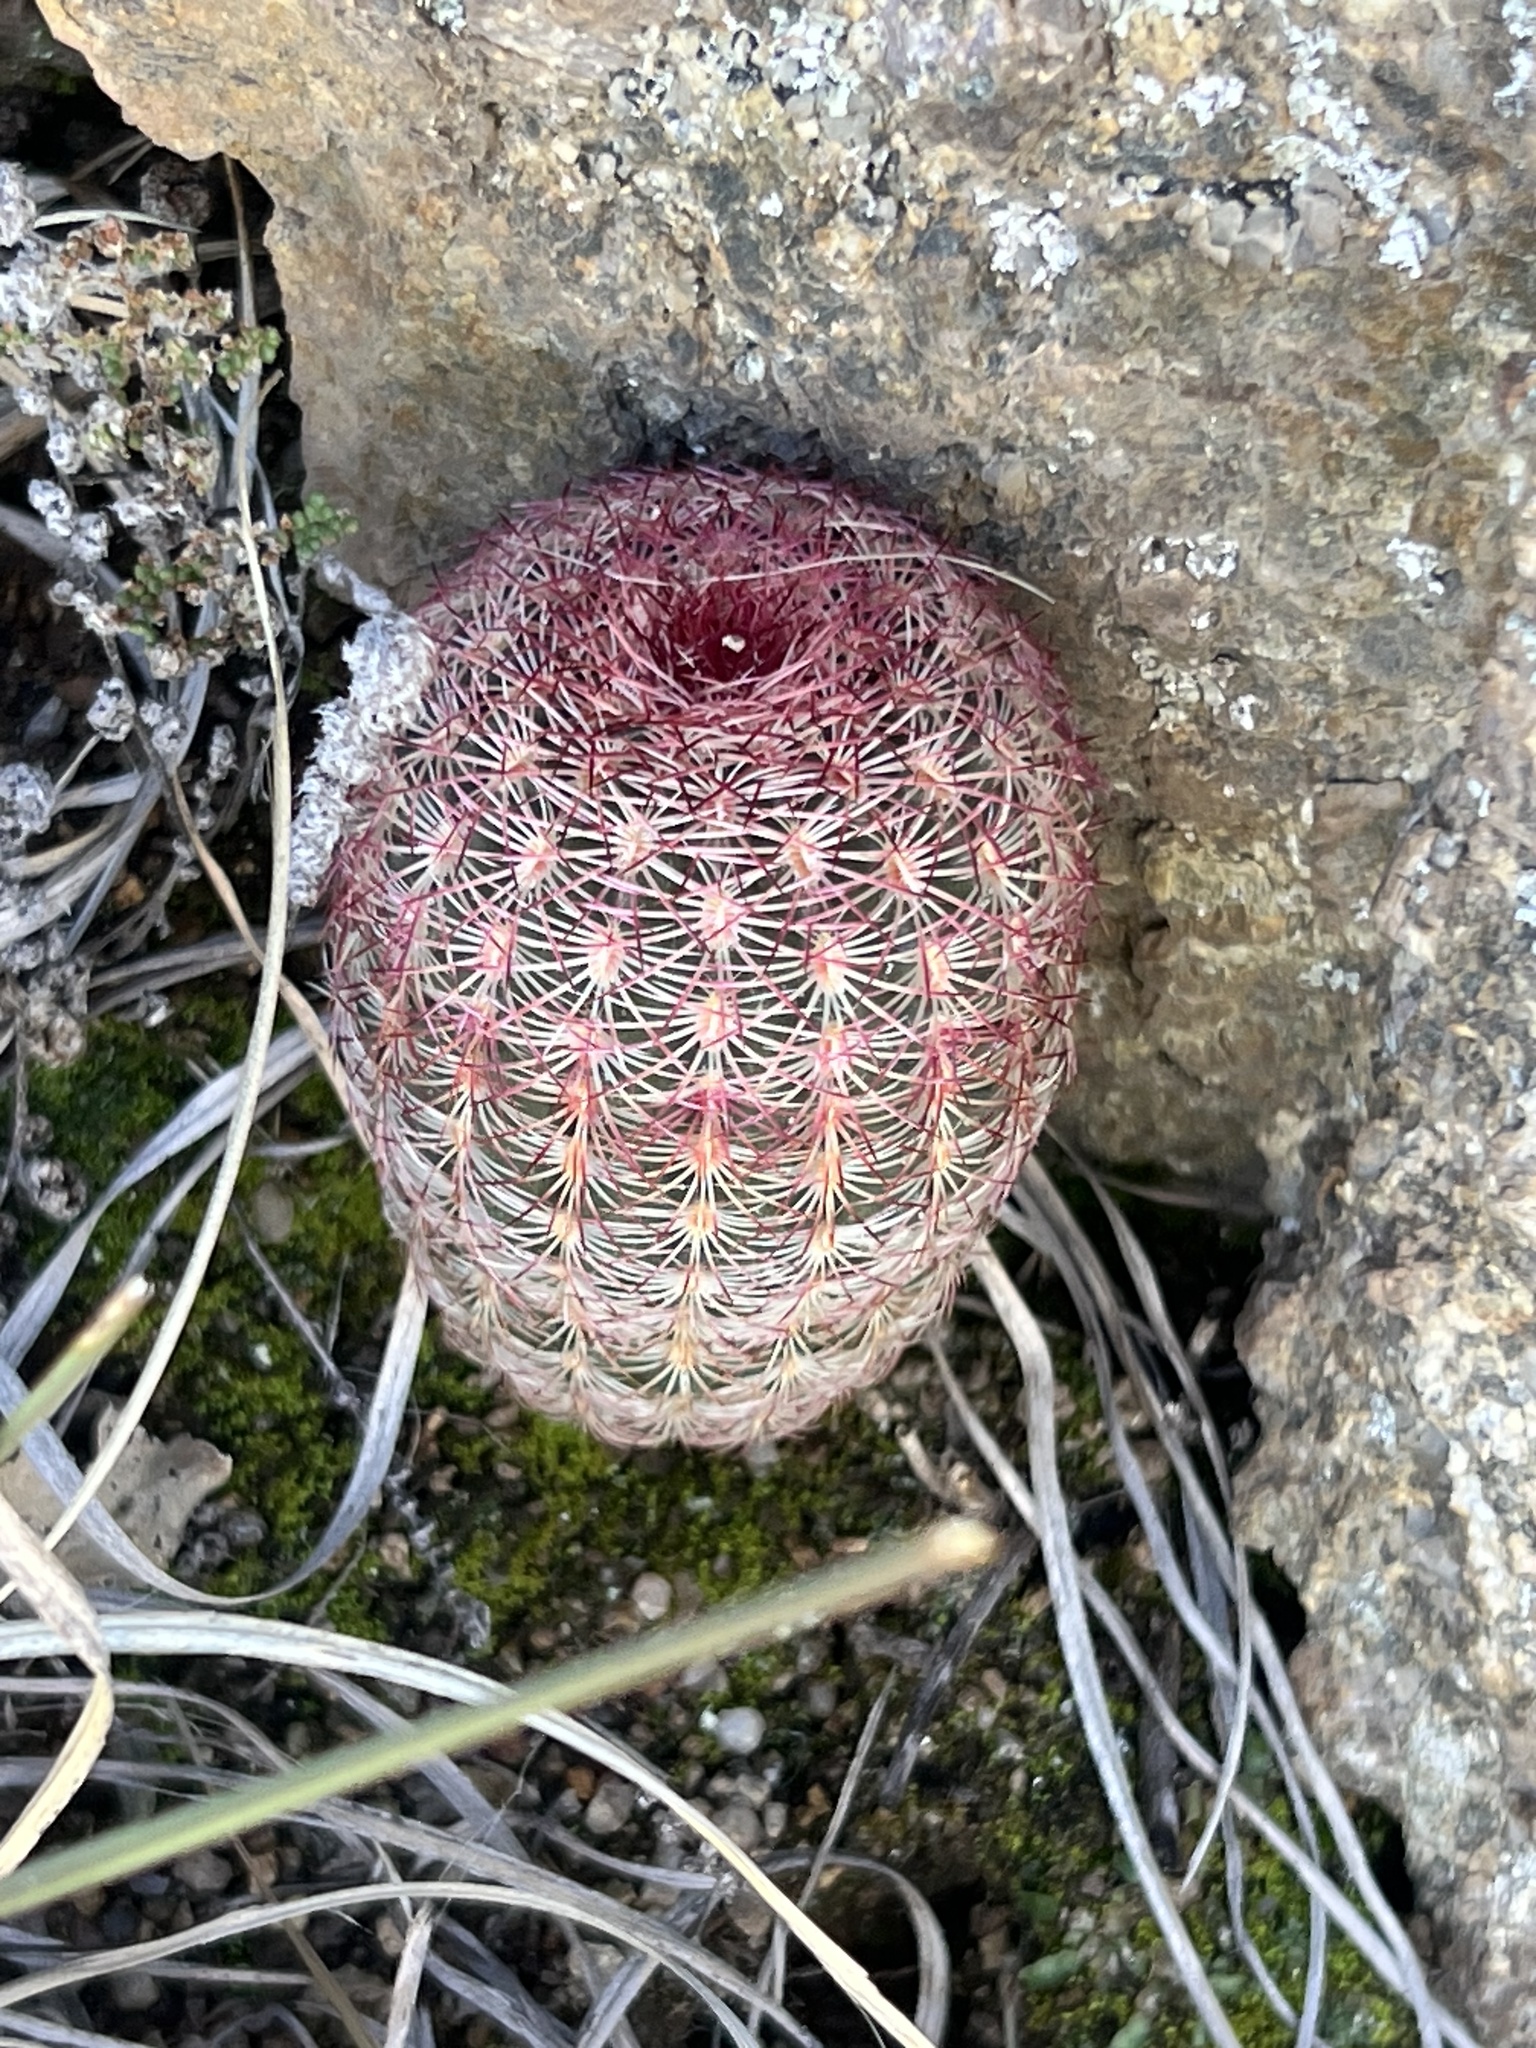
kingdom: Plantae
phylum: Tracheophyta
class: Magnoliopsida
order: Caryophyllales
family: Cactaceae
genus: Echinocereus
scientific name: Echinocereus rigidissimus
